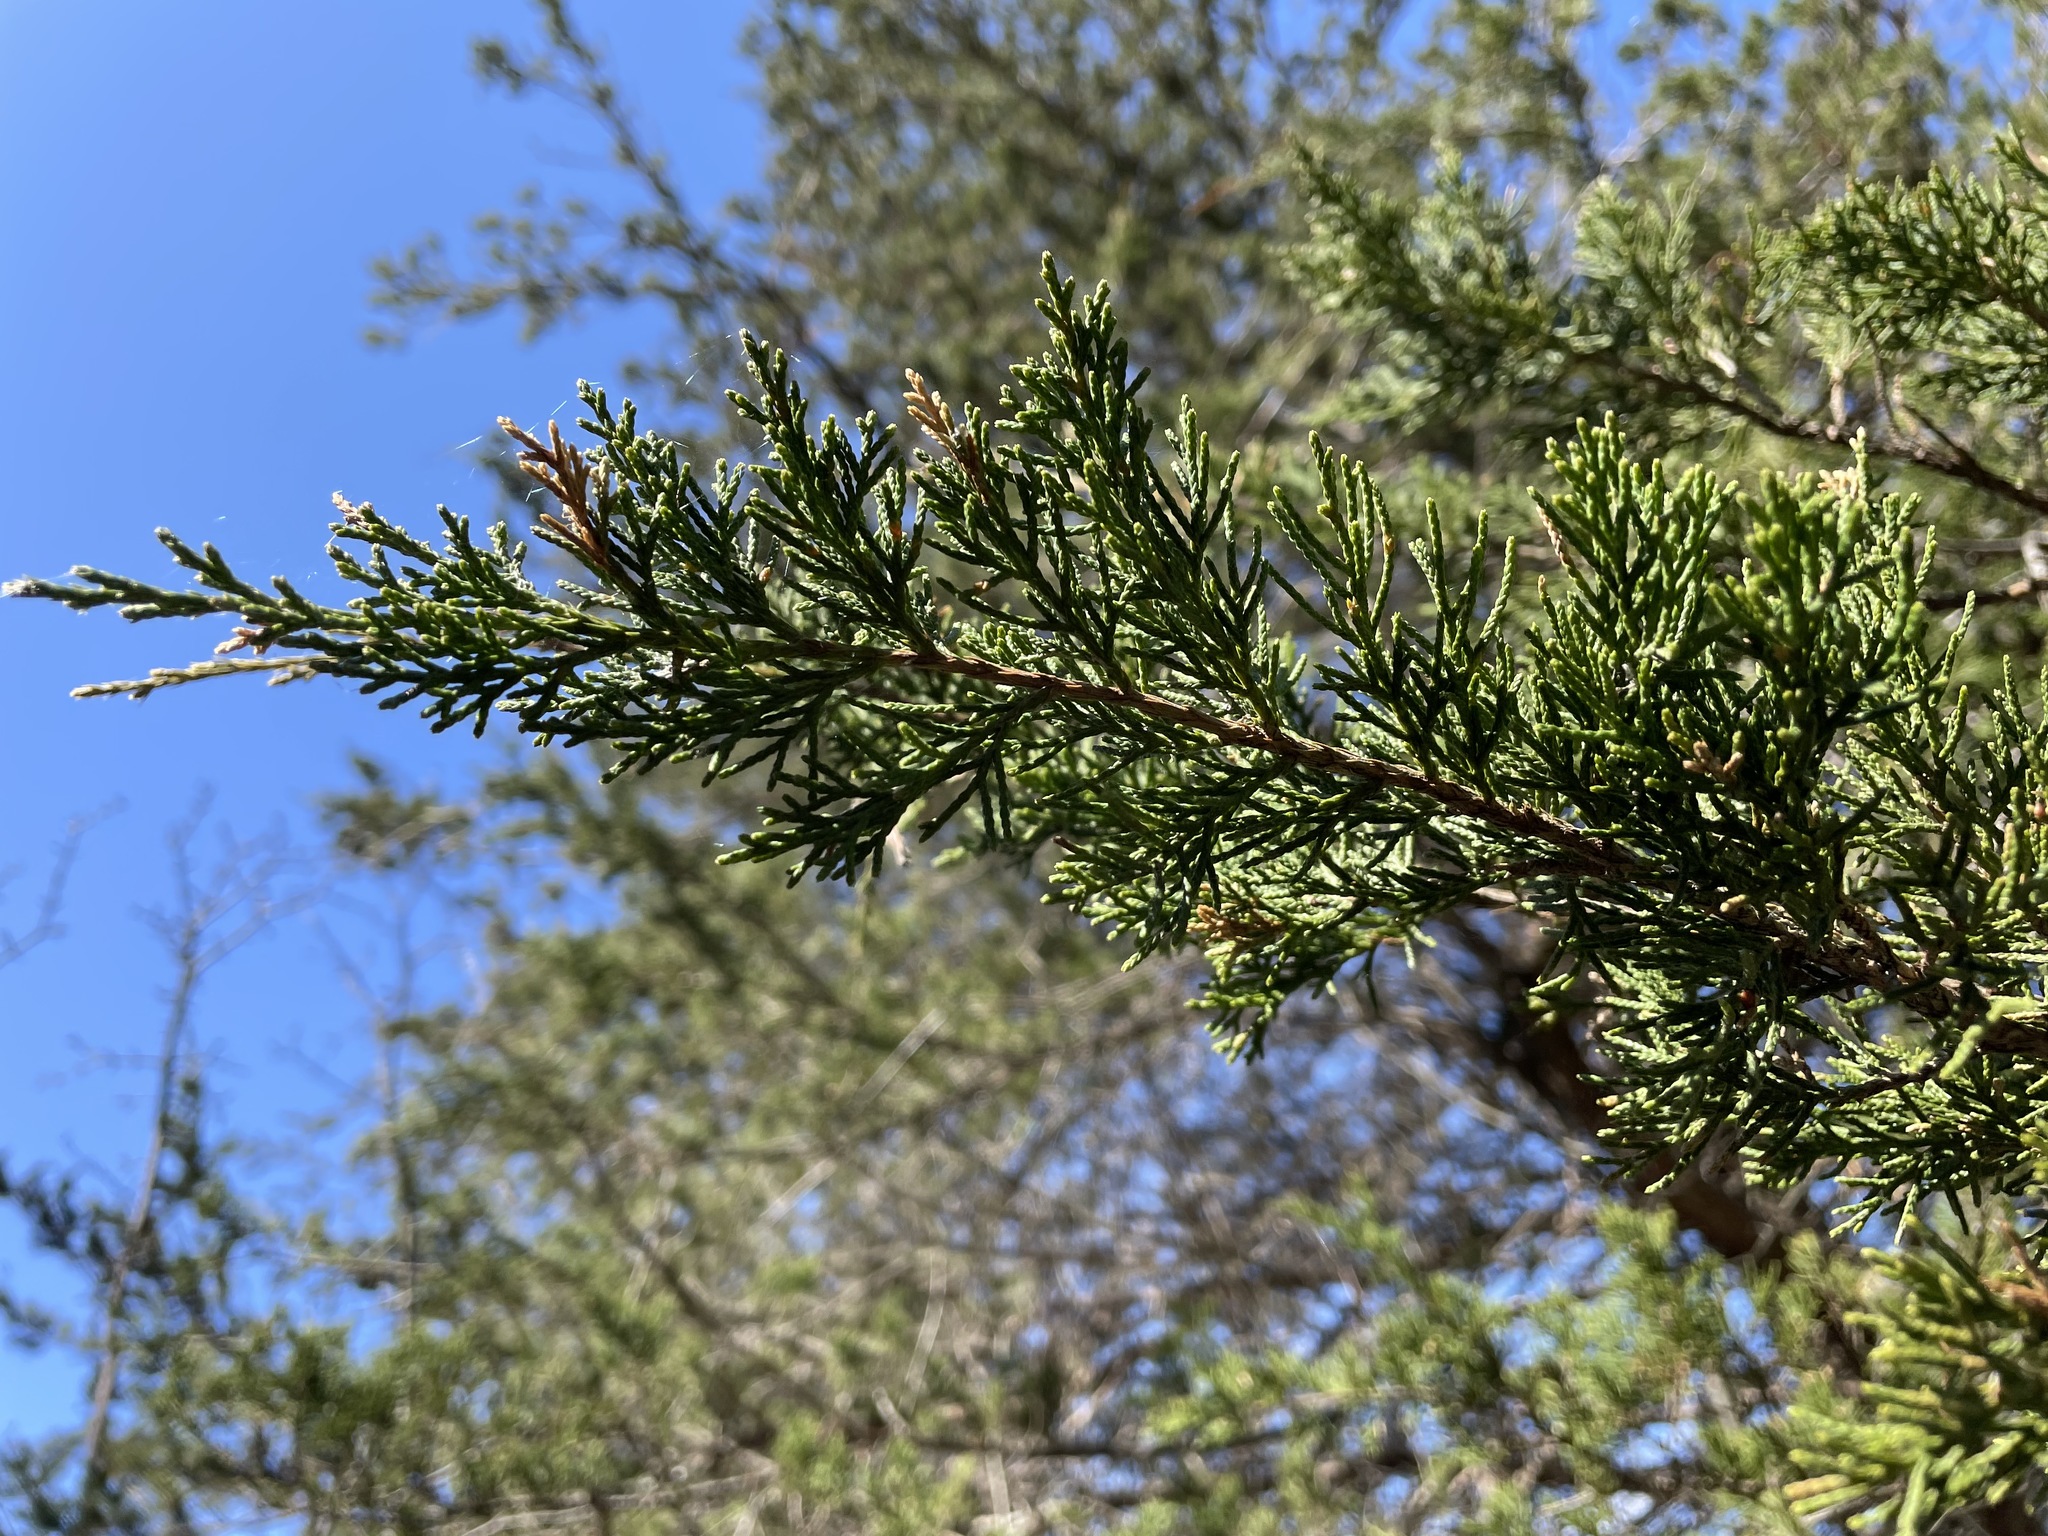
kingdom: Plantae
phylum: Tracheophyta
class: Pinopsida
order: Pinales
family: Cupressaceae
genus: Juniperus
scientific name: Juniperus virginiana
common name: Red juniper
